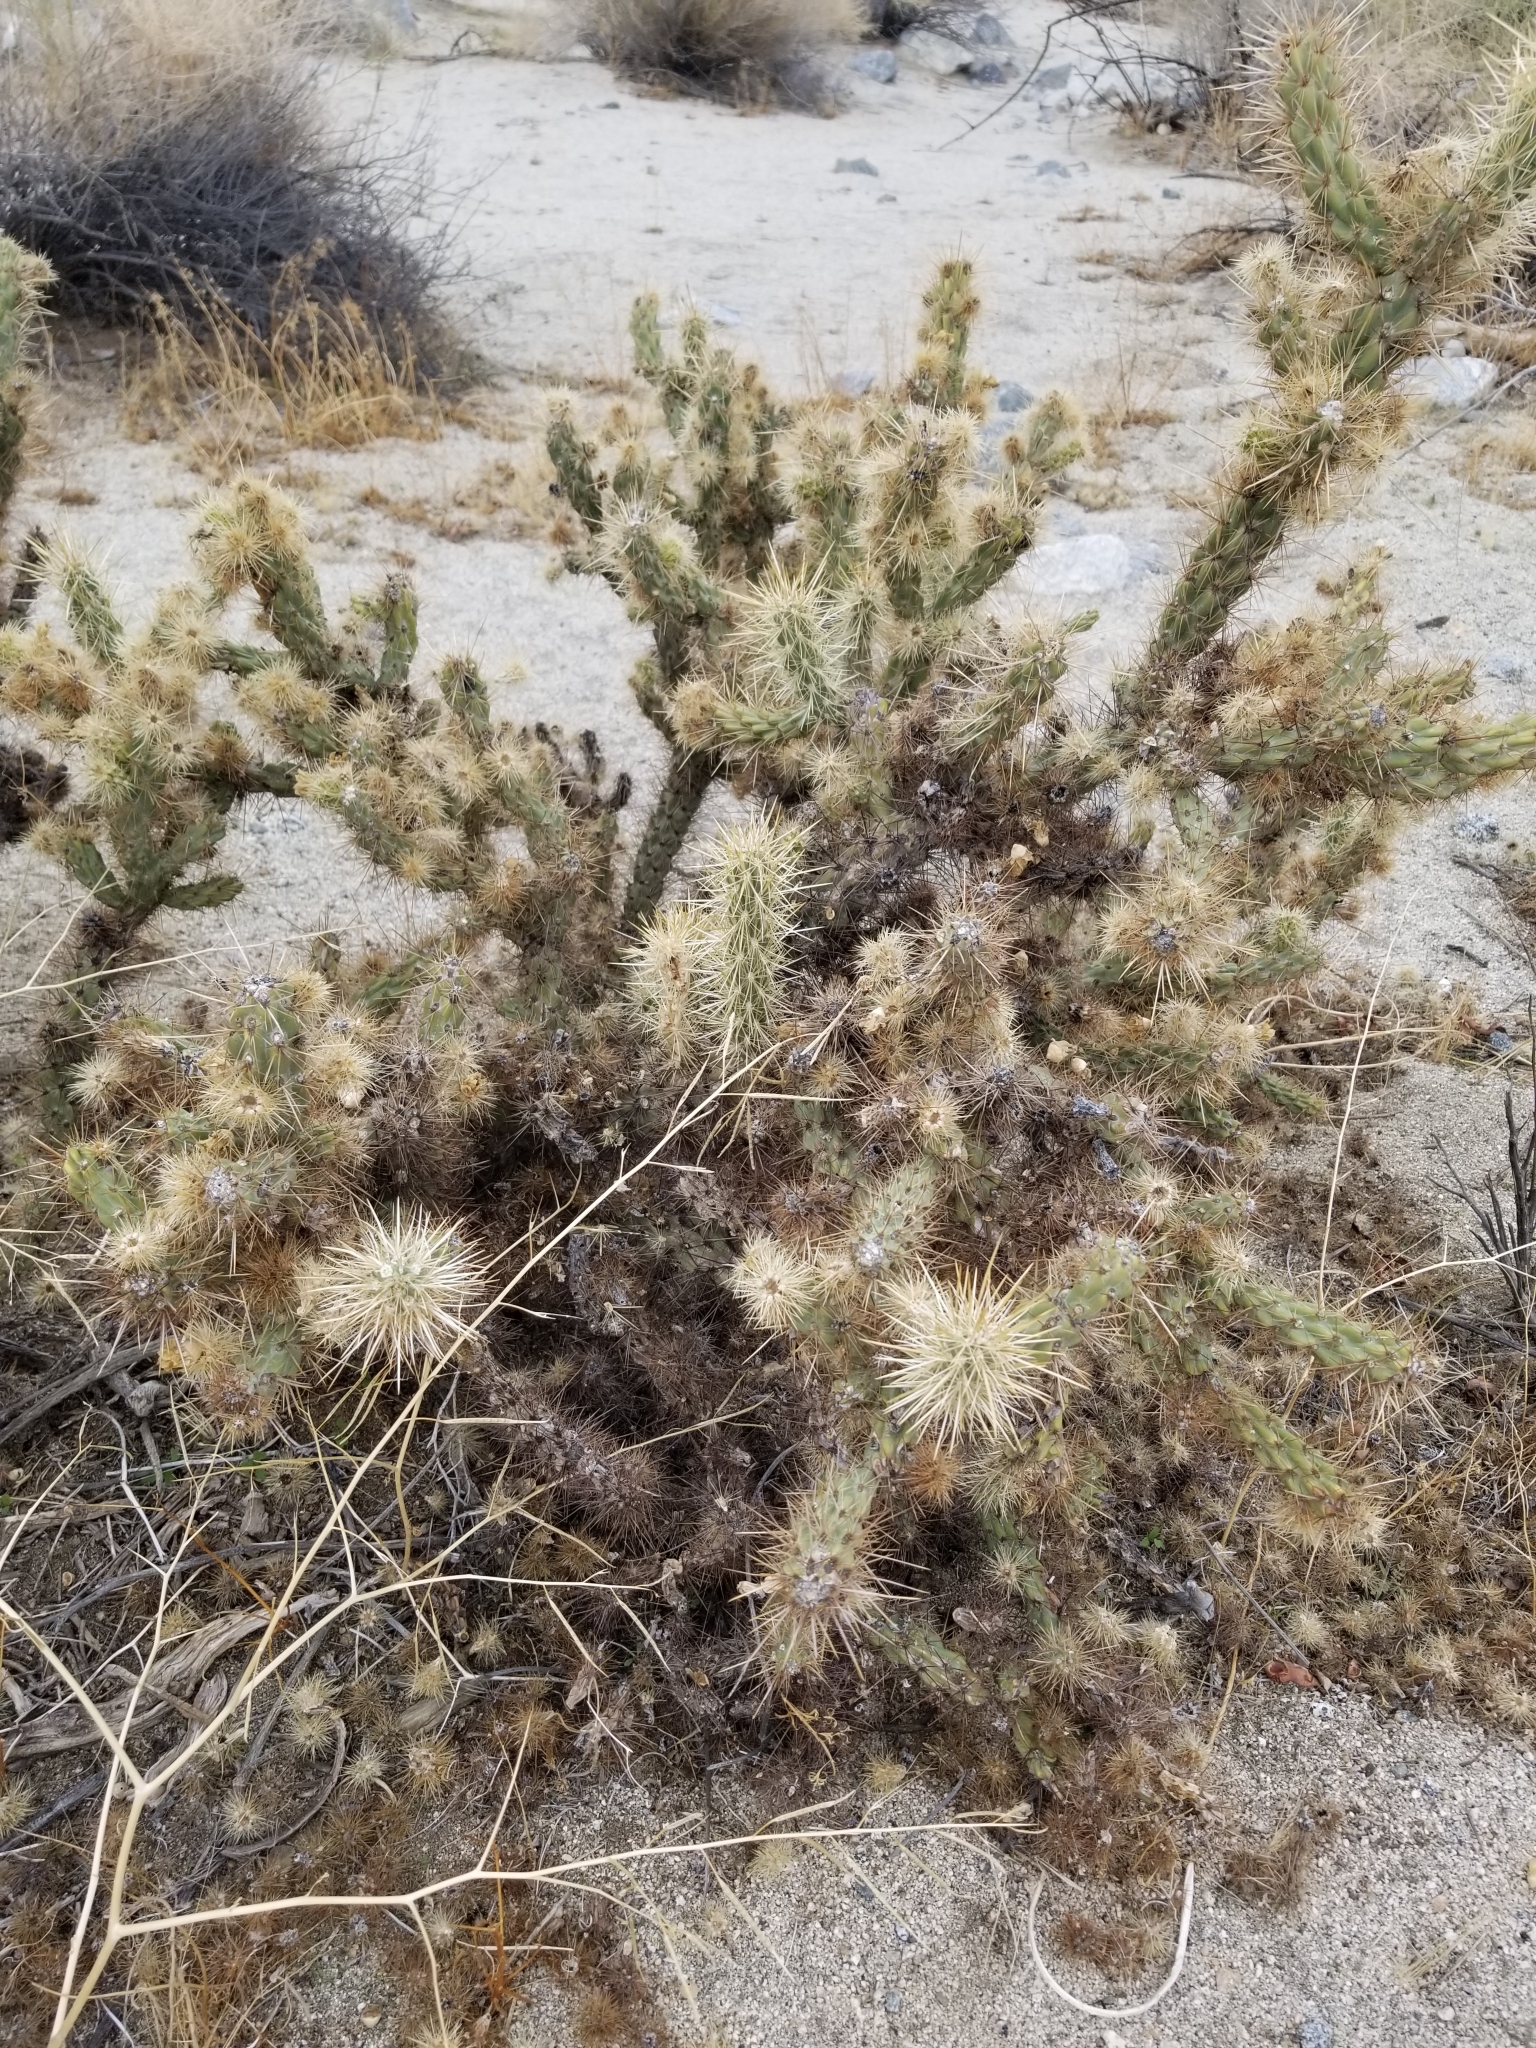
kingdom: Plantae
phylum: Tracheophyta
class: Magnoliopsida
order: Caryophyllales
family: Cactaceae
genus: Cylindropuntia
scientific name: Cylindropuntia echinocarpa
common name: Ground cholla
